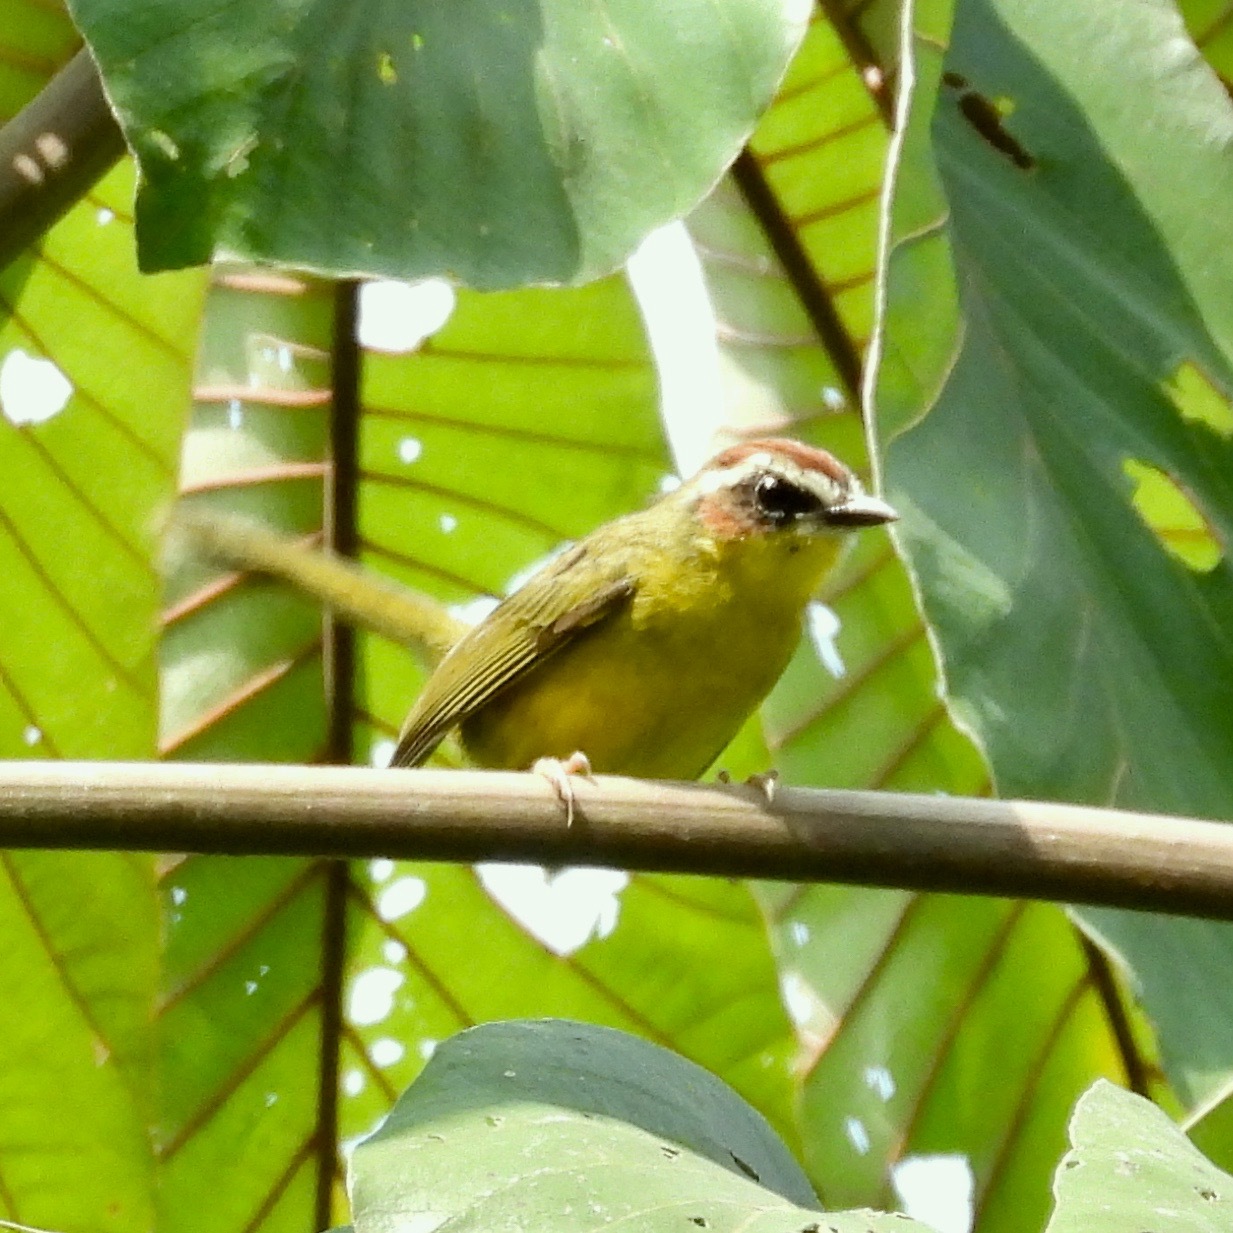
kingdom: Animalia
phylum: Chordata
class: Aves
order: Passeriformes
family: Parulidae
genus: Basileuterus
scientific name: Basileuterus rufifrons
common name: Rufous-capped warbler
